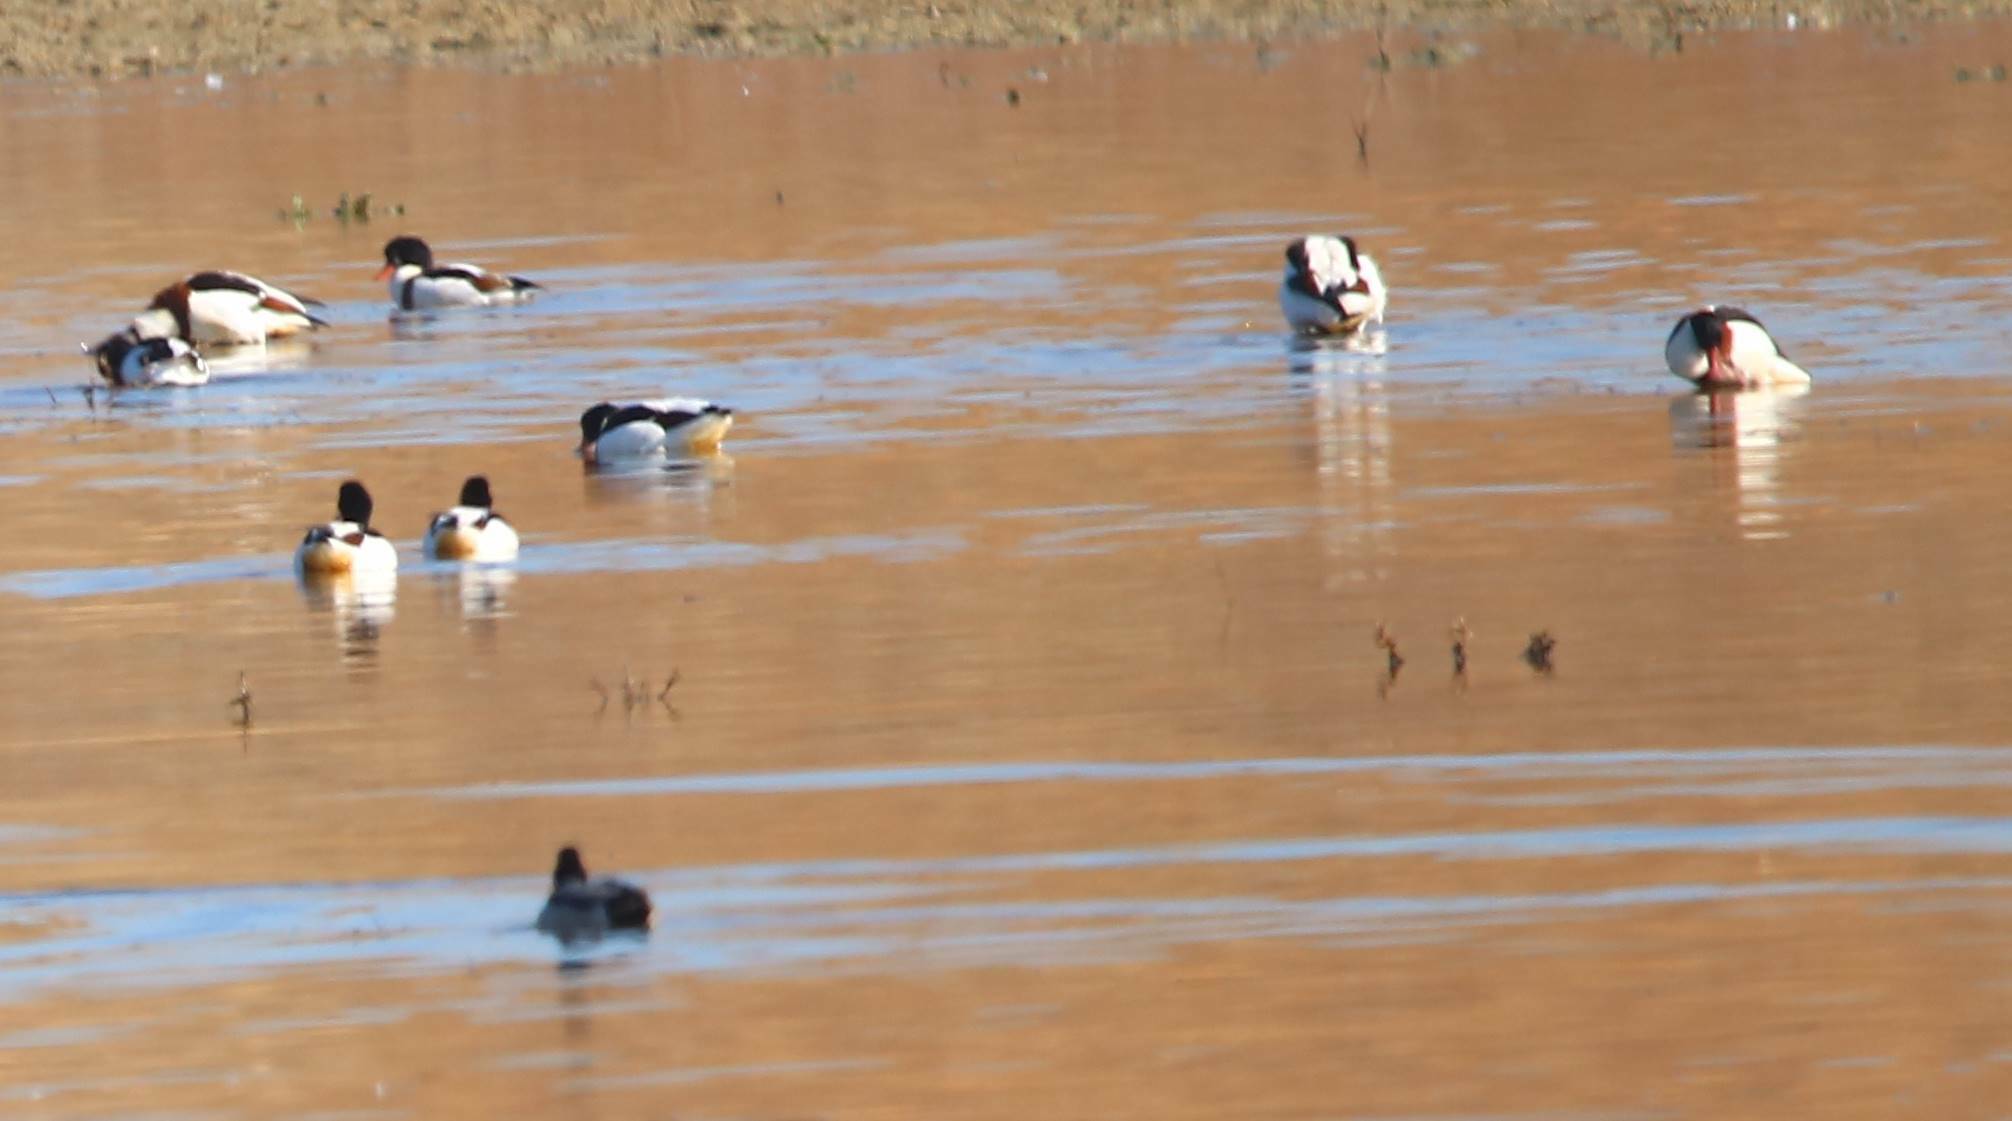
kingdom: Animalia
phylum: Chordata
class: Aves
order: Anseriformes
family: Anatidae
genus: Tadorna
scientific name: Tadorna tadorna
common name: Common shelduck
